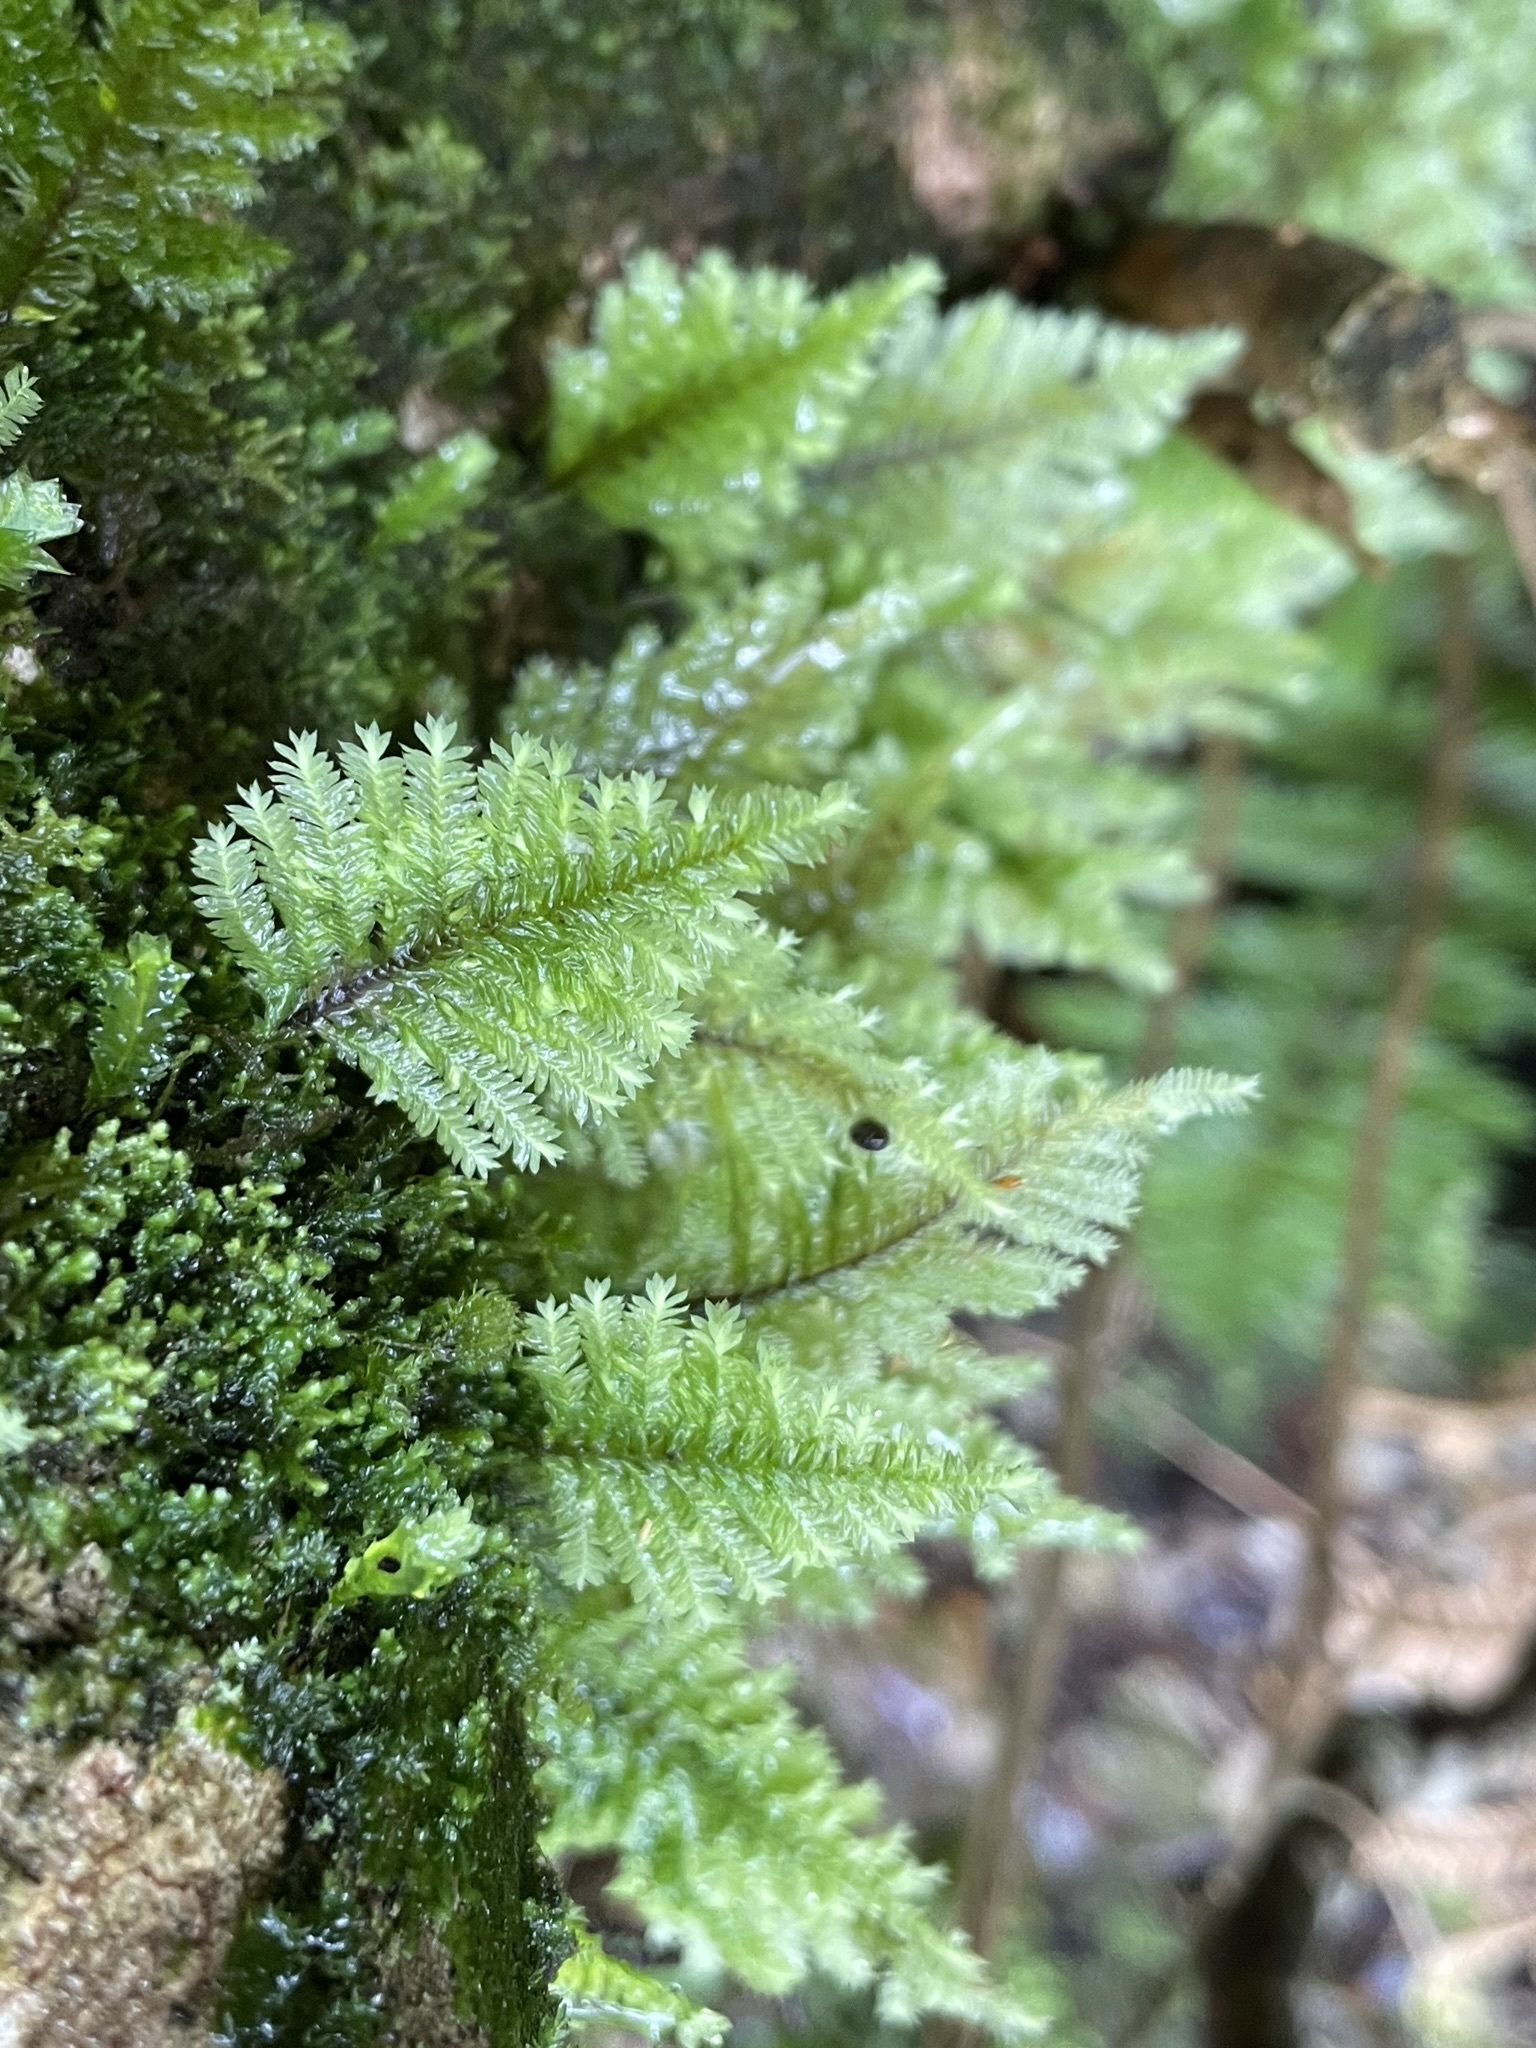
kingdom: Plantae
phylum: Bryophyta
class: Bryopsida
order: Hypopterygiales
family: Hypopterygiaceae
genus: Lopidium
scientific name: Lopidium concinnum
